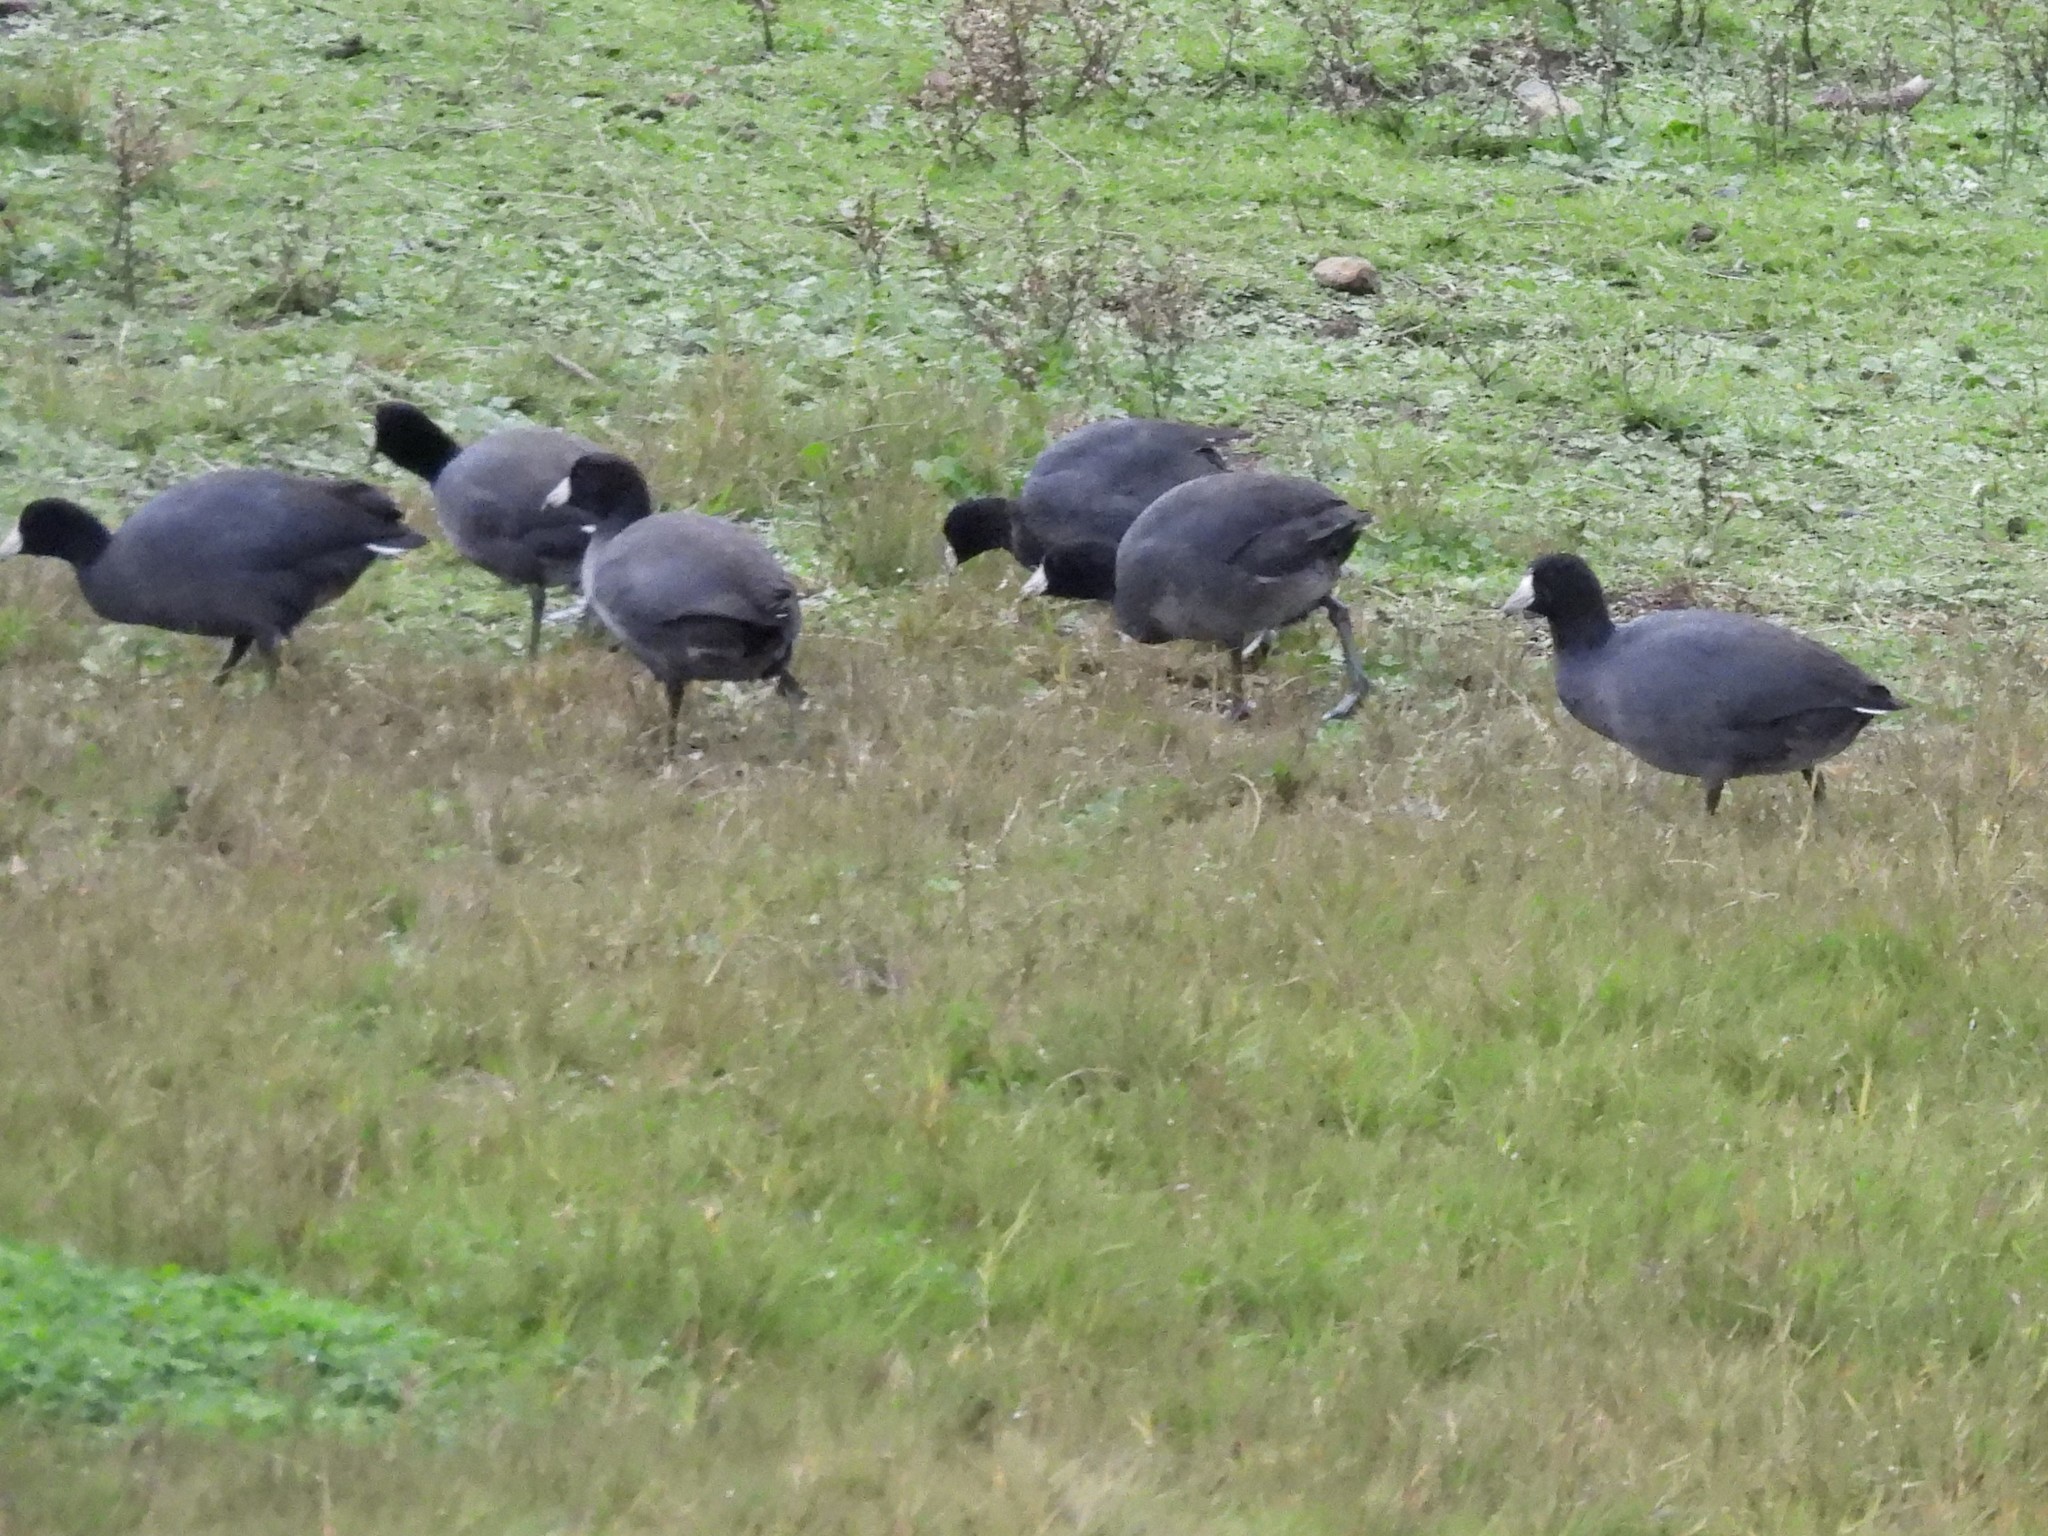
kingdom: Animalia
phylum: Chordata
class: Aves
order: Gruiformes
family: Rallidae
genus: Fulica
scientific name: Fulica americana
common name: American coot
